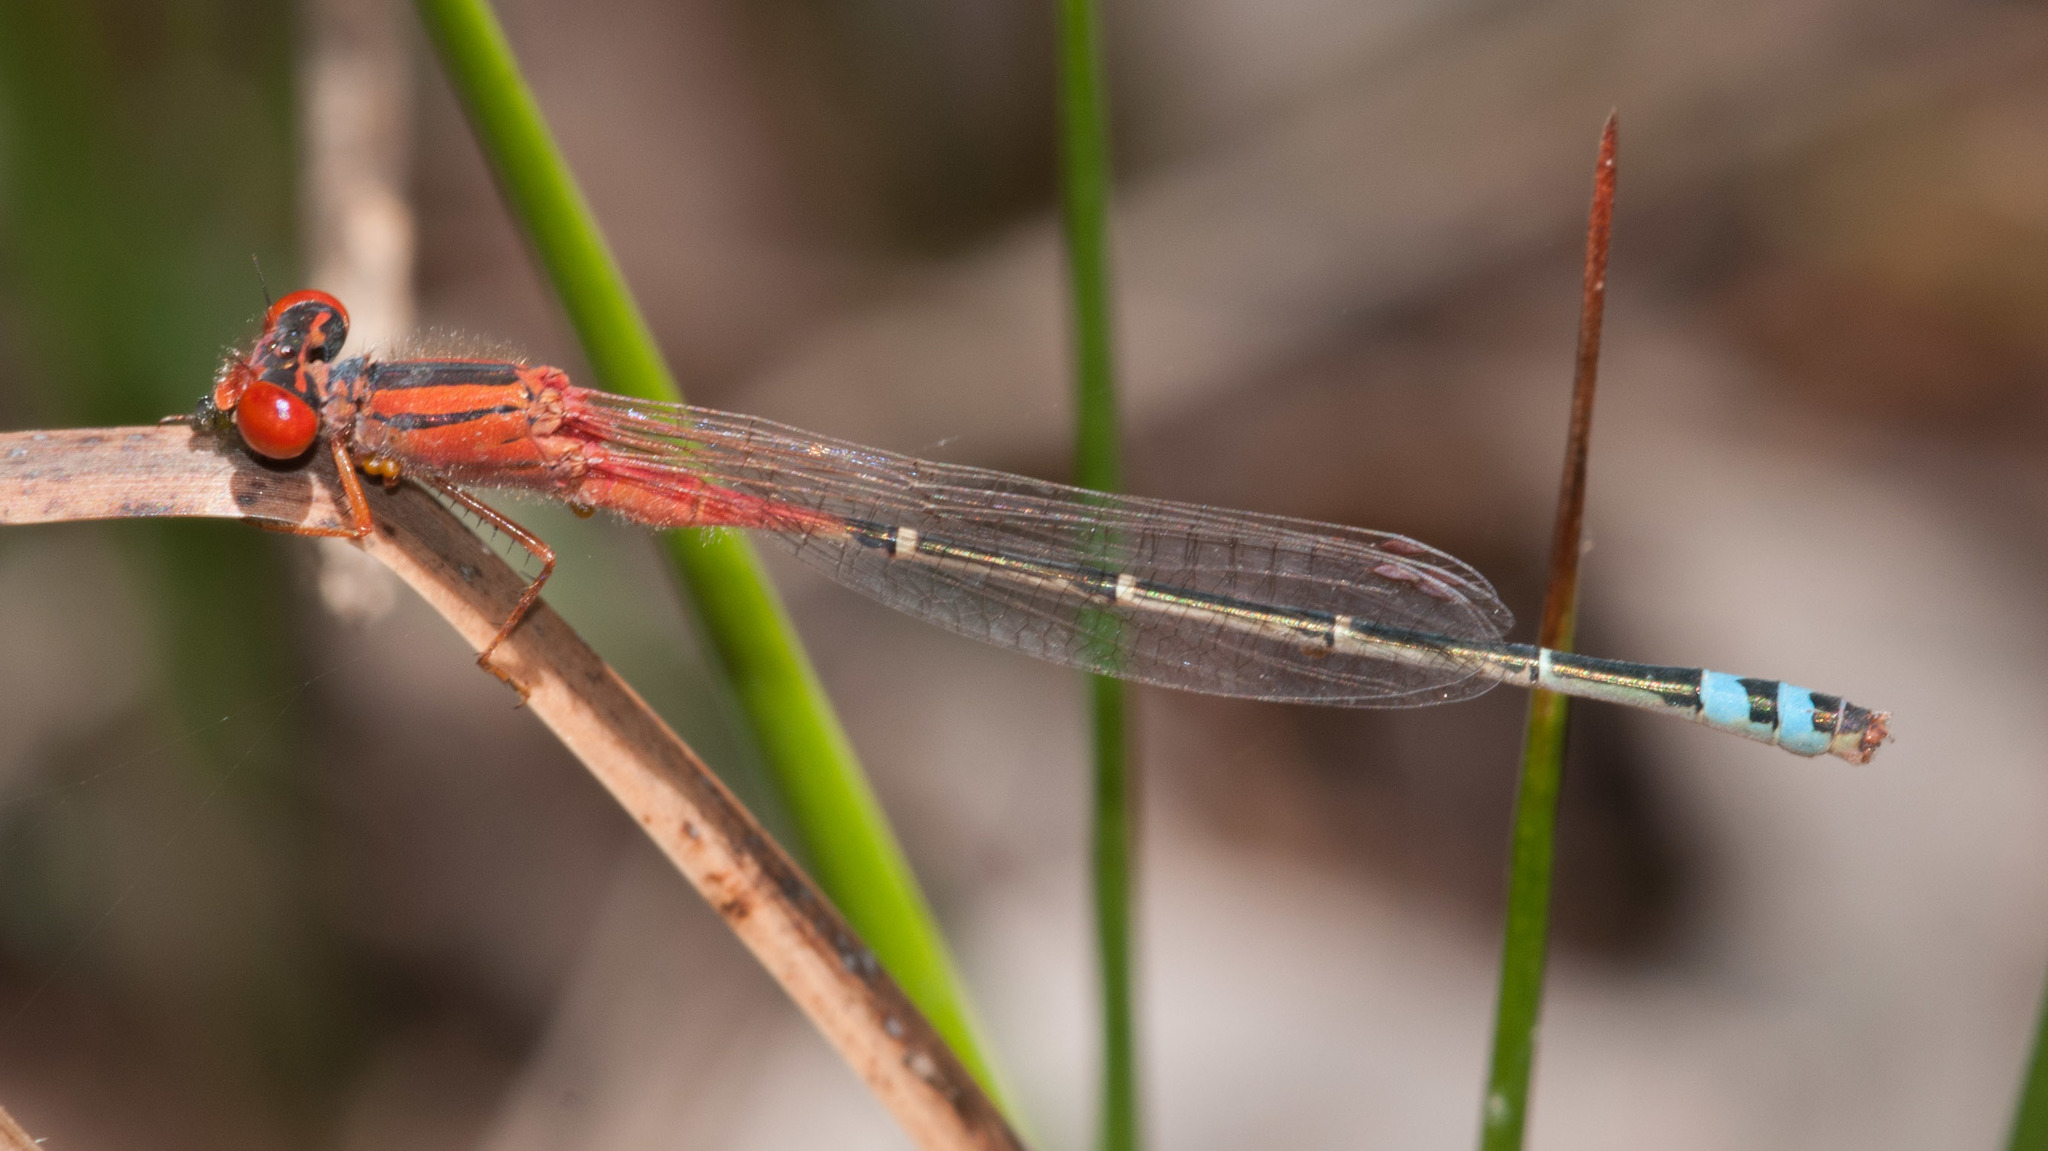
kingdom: Animalia
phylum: Arthropoda
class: Insecta
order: Odonata
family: Coenagrionidae
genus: Xanthagrion
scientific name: Xanthagrion erythroneurum
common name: Red and blue damsel
